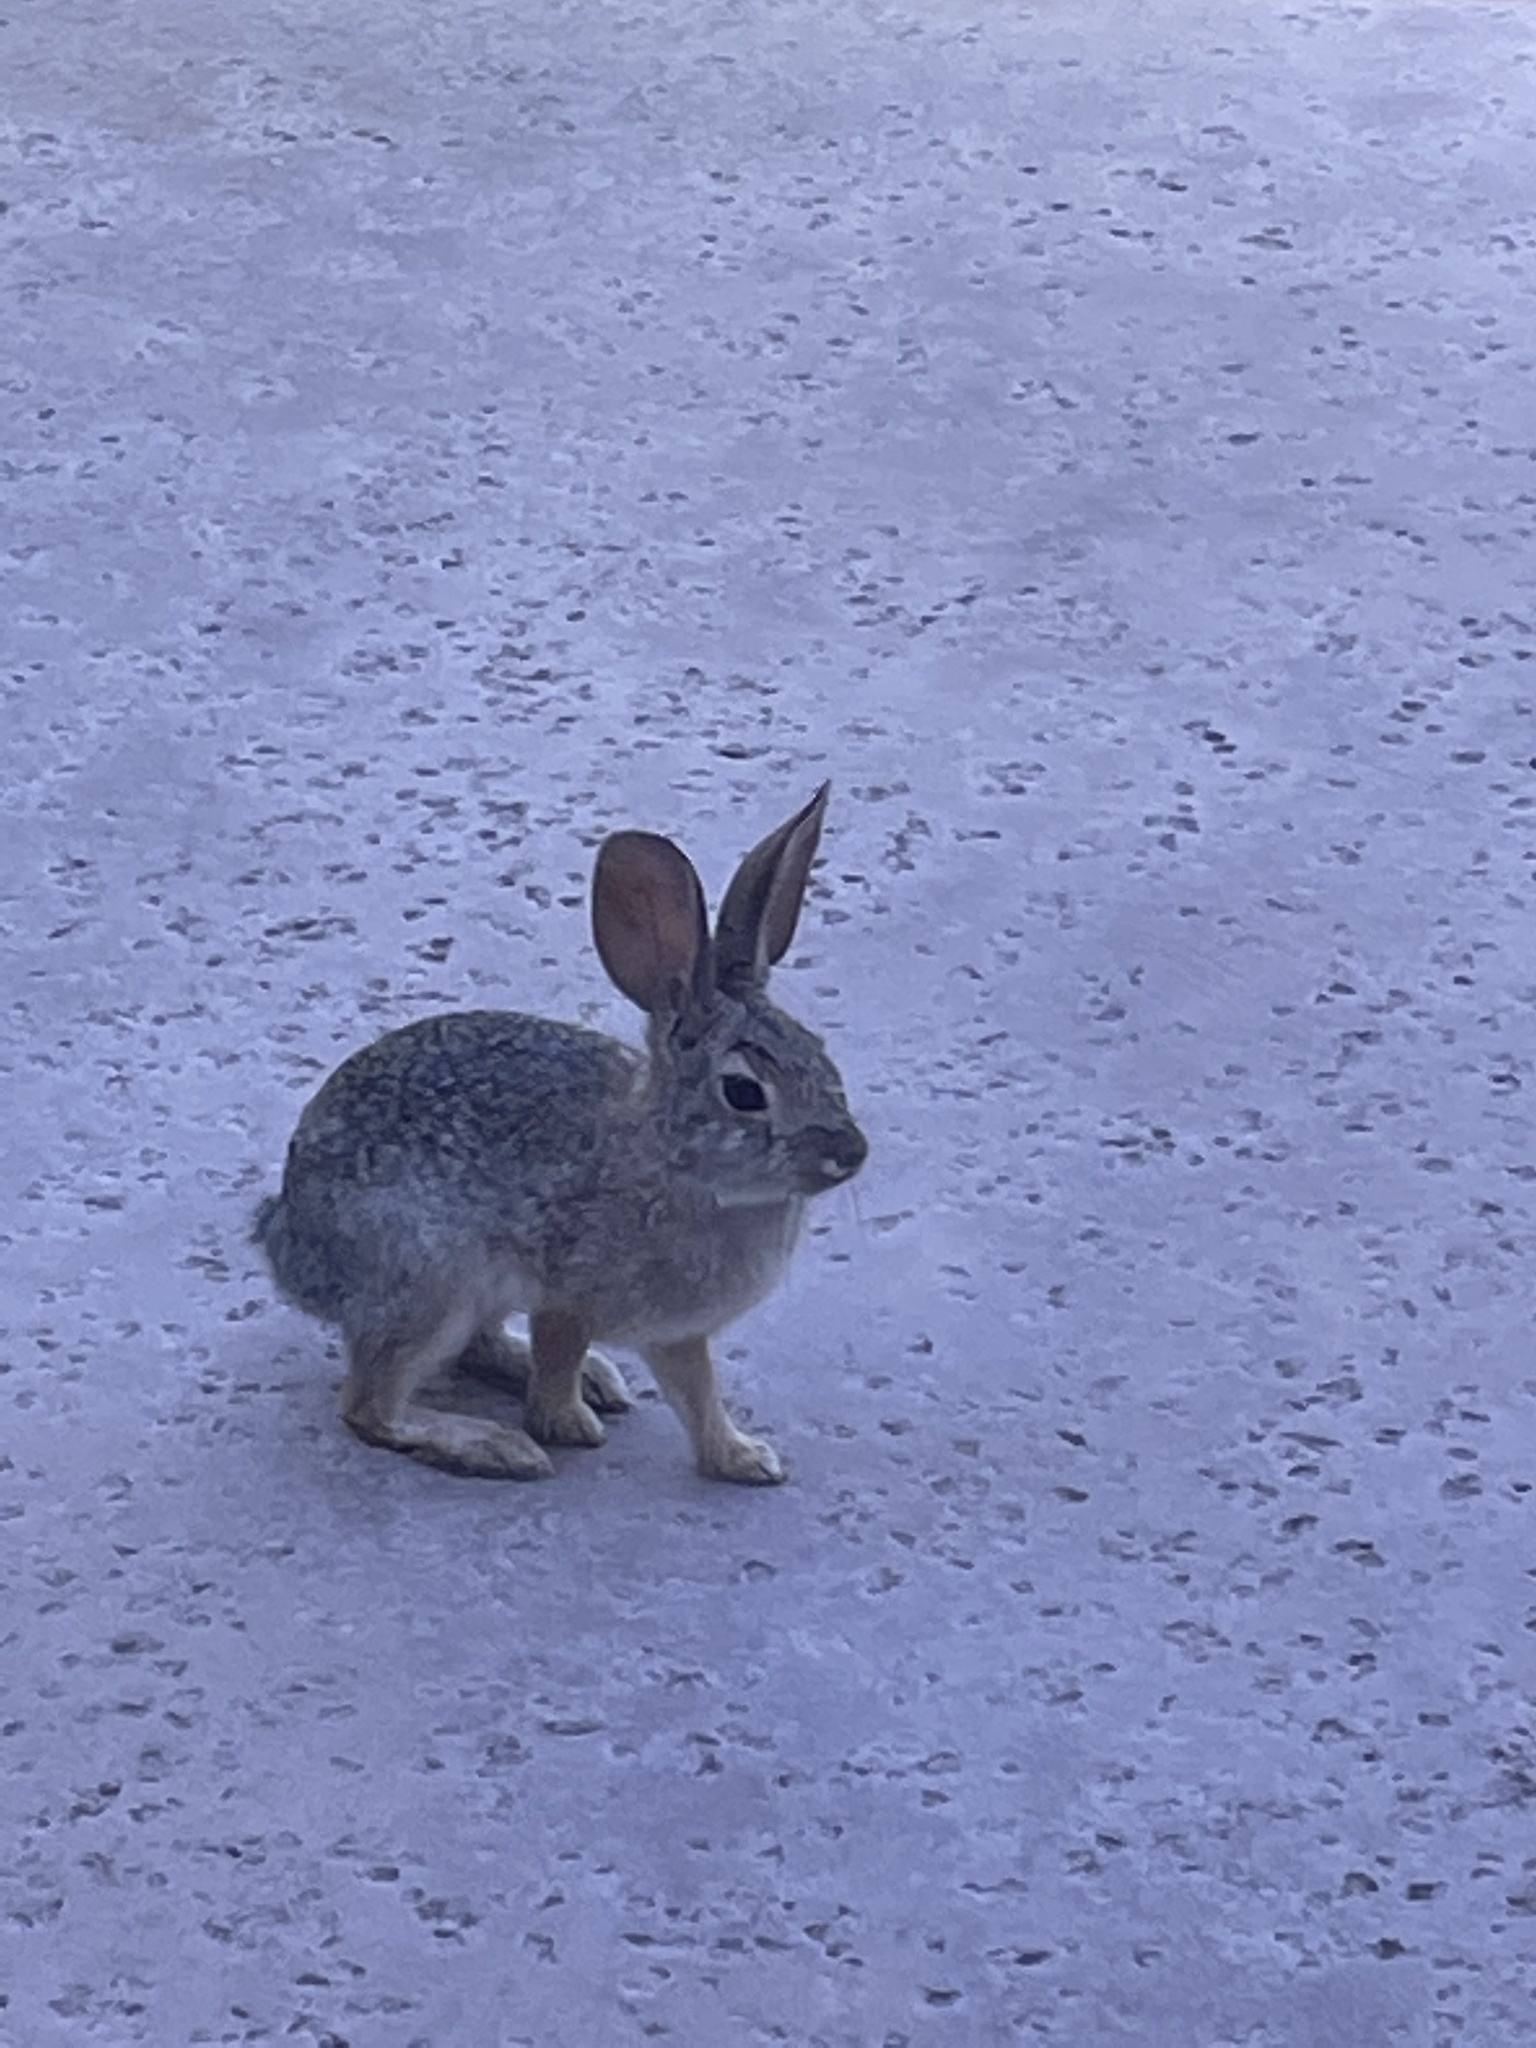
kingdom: Animalia
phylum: Chordata
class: Mammalia
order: Lagomorpha
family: Leporidae
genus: Sylvilagus
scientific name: Sylvilagus audubonii
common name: Desert cottontail
